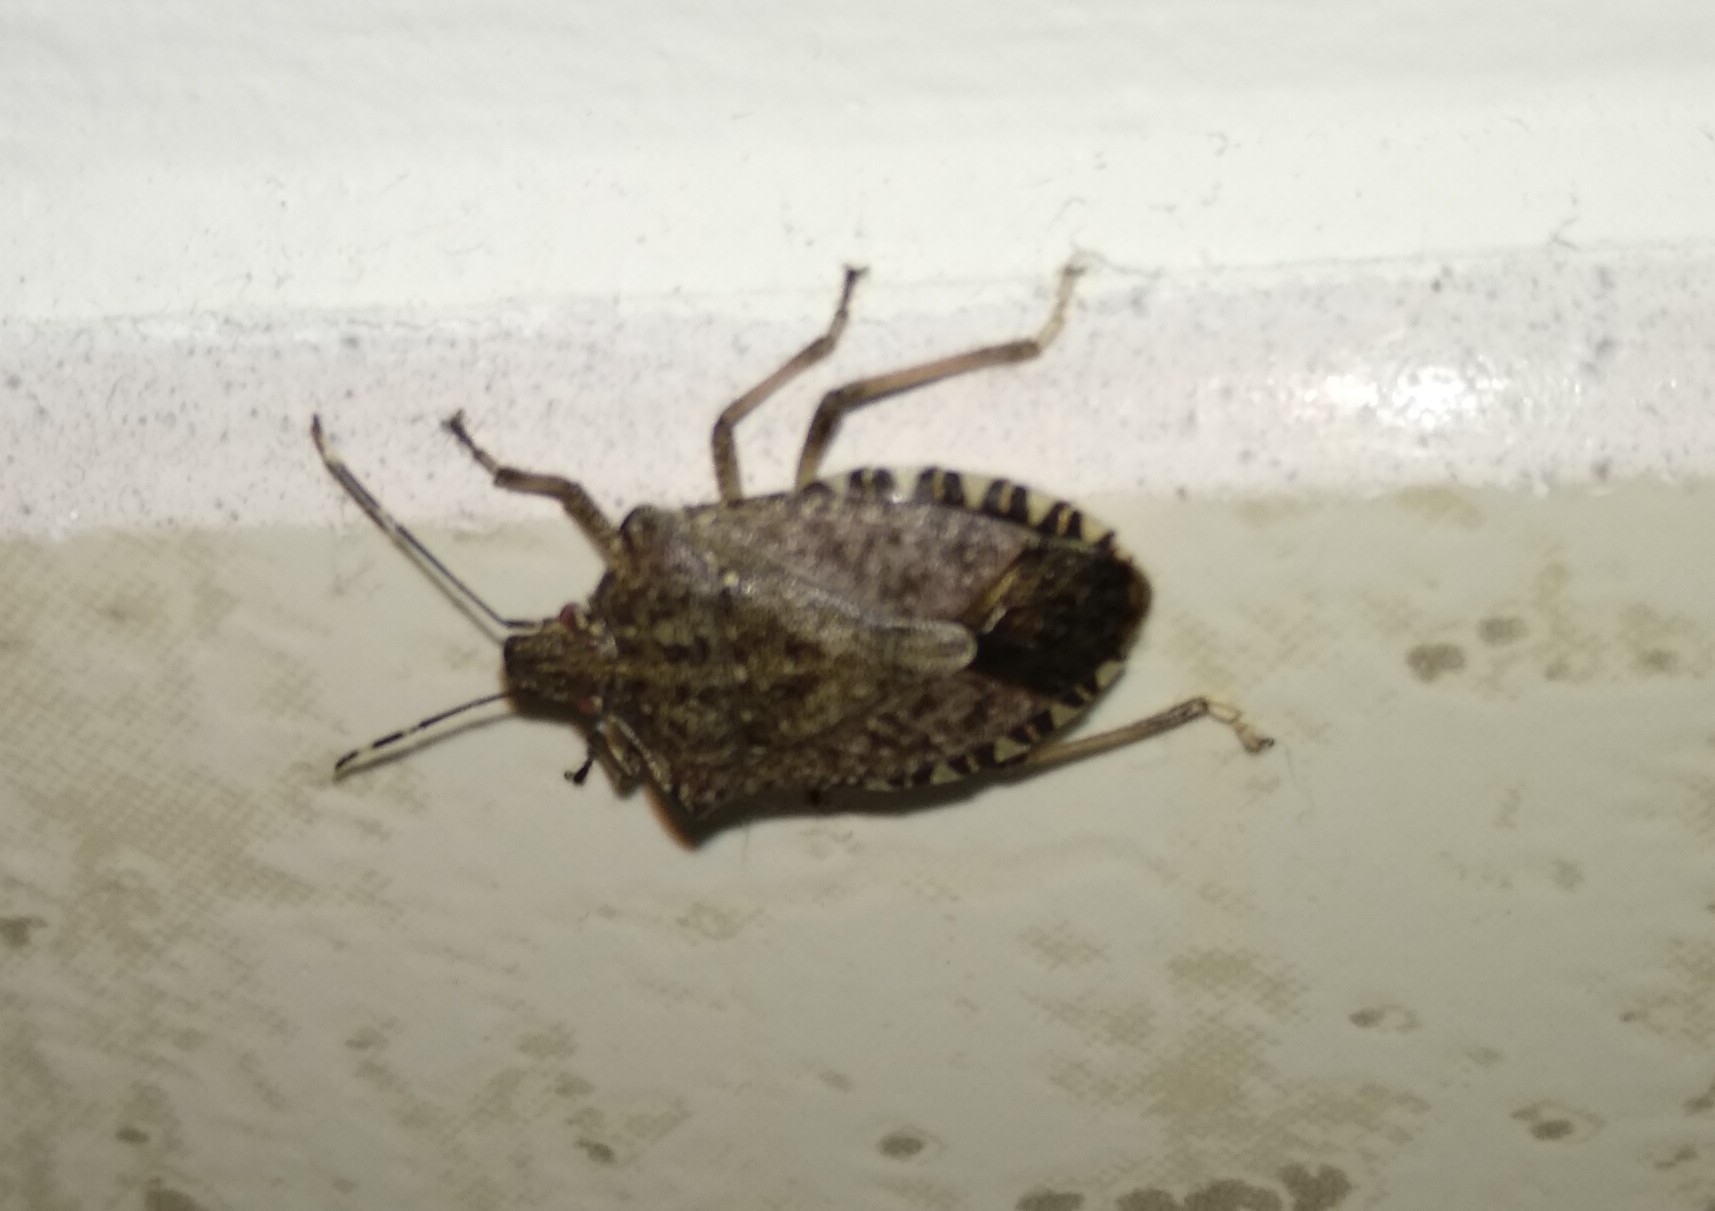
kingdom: Animalia
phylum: Arthropoda
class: Insecta
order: Hemiptera
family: Pentatomidae
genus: Halyomorpha
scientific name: Halyomorpha halys
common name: Brown marmorated stink bug
